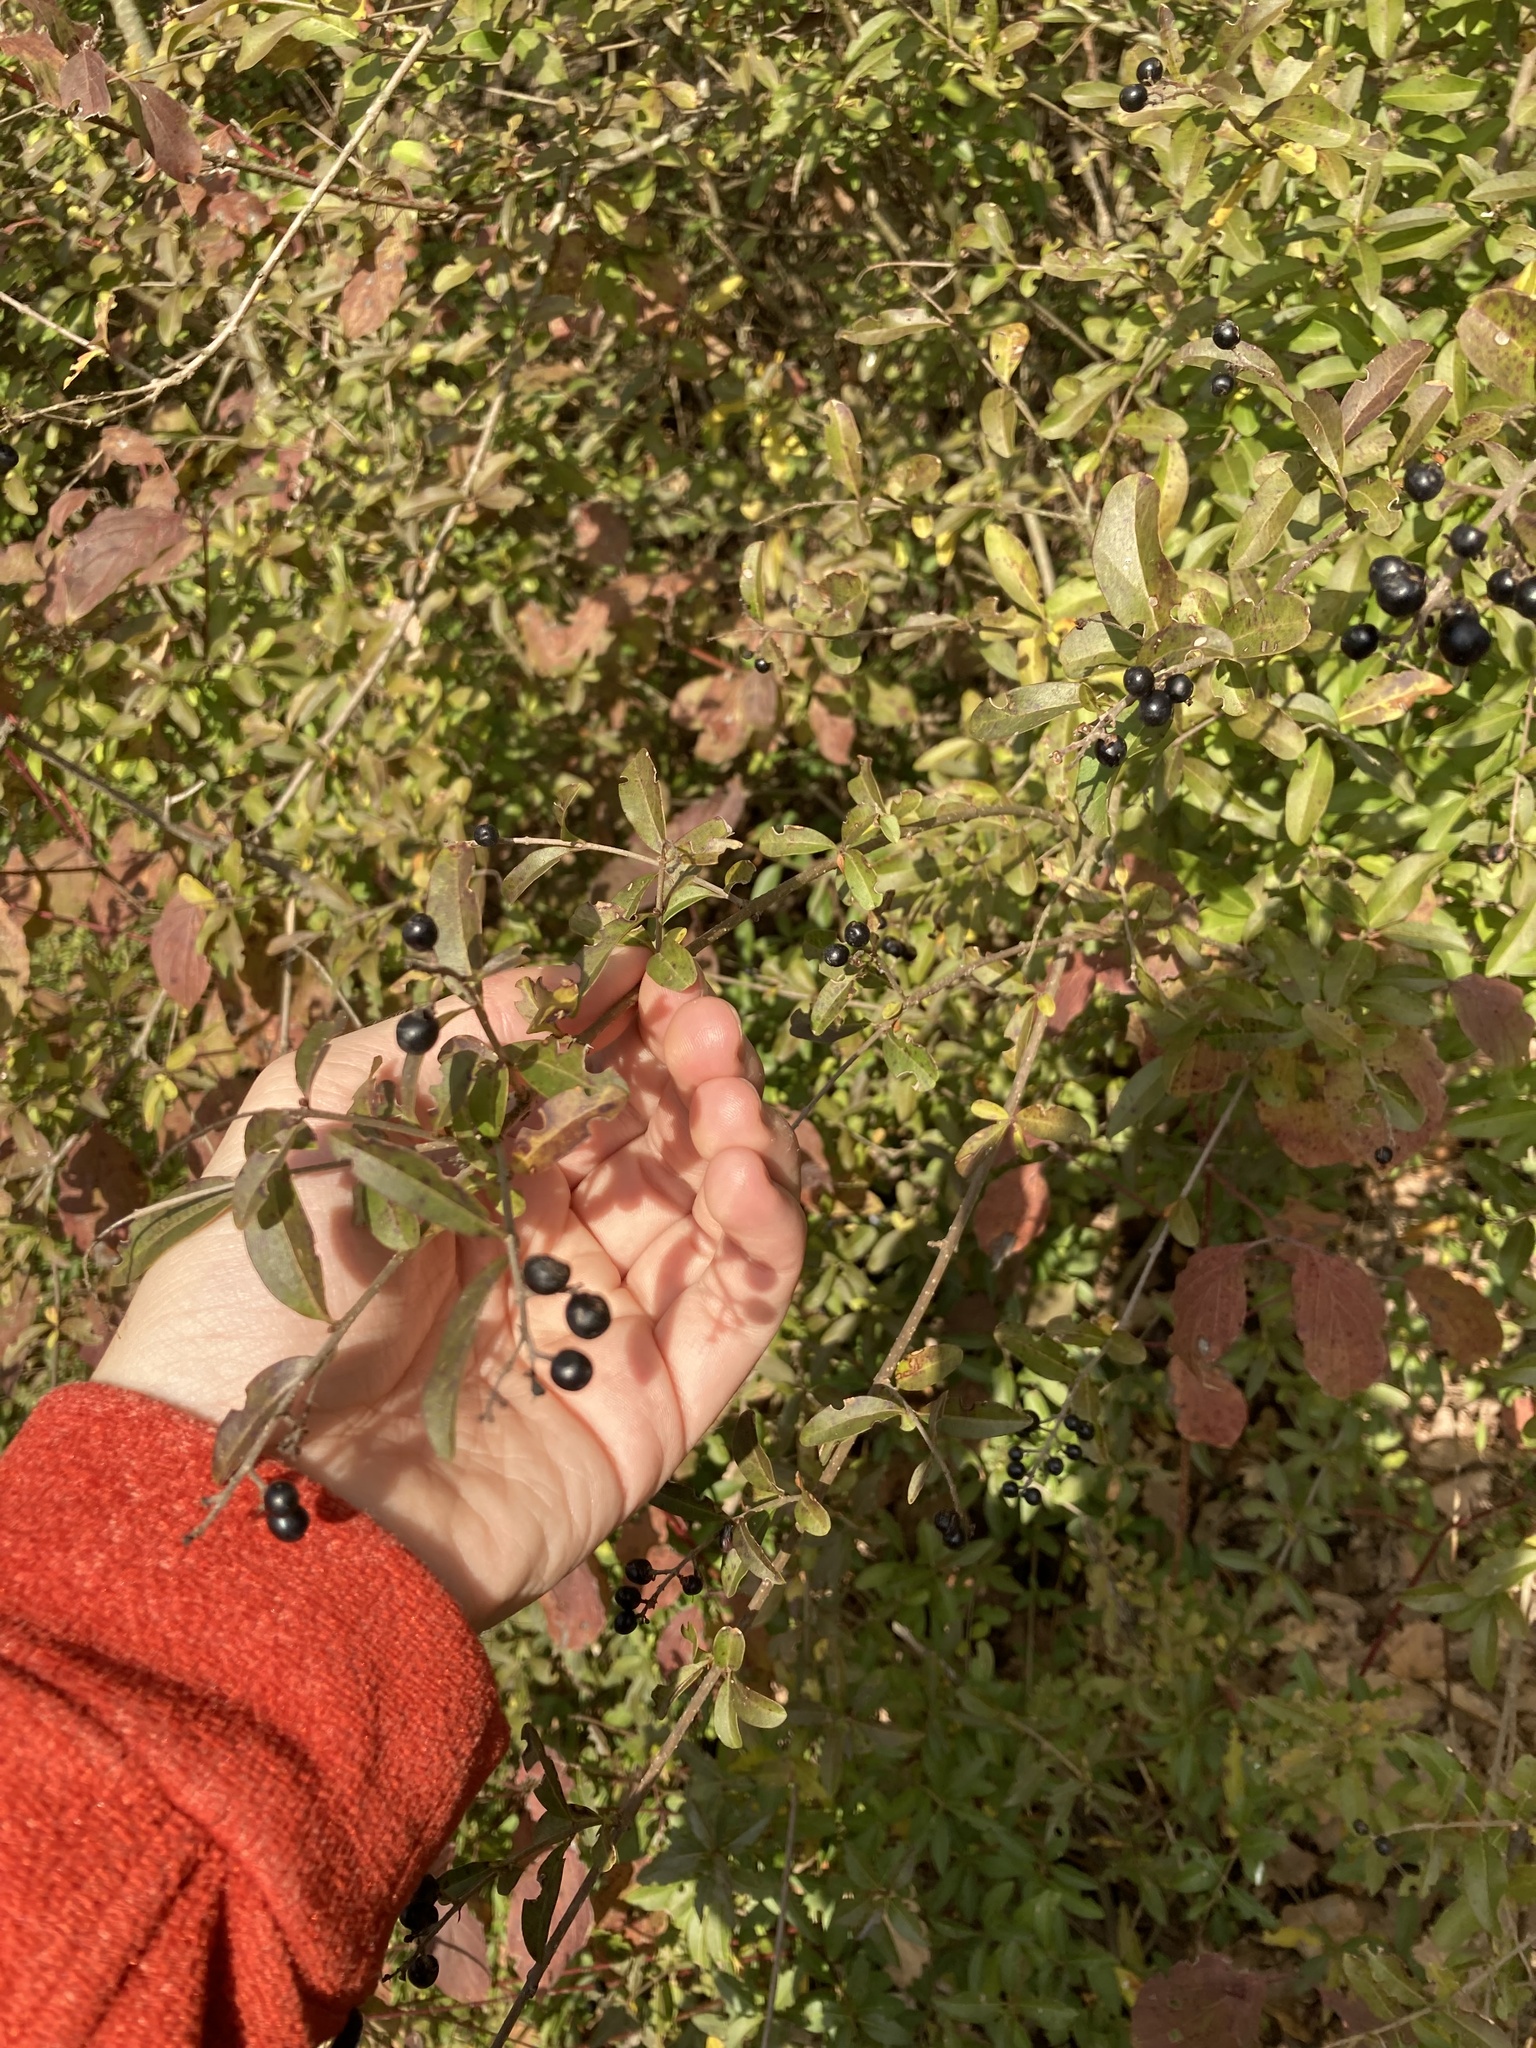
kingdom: Plantae
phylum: Tracheophyta
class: Magnoliopsida
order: Lamiales
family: Oleaceae
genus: Ligustrum
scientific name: Ligustrum vulgare
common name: Wild privet
